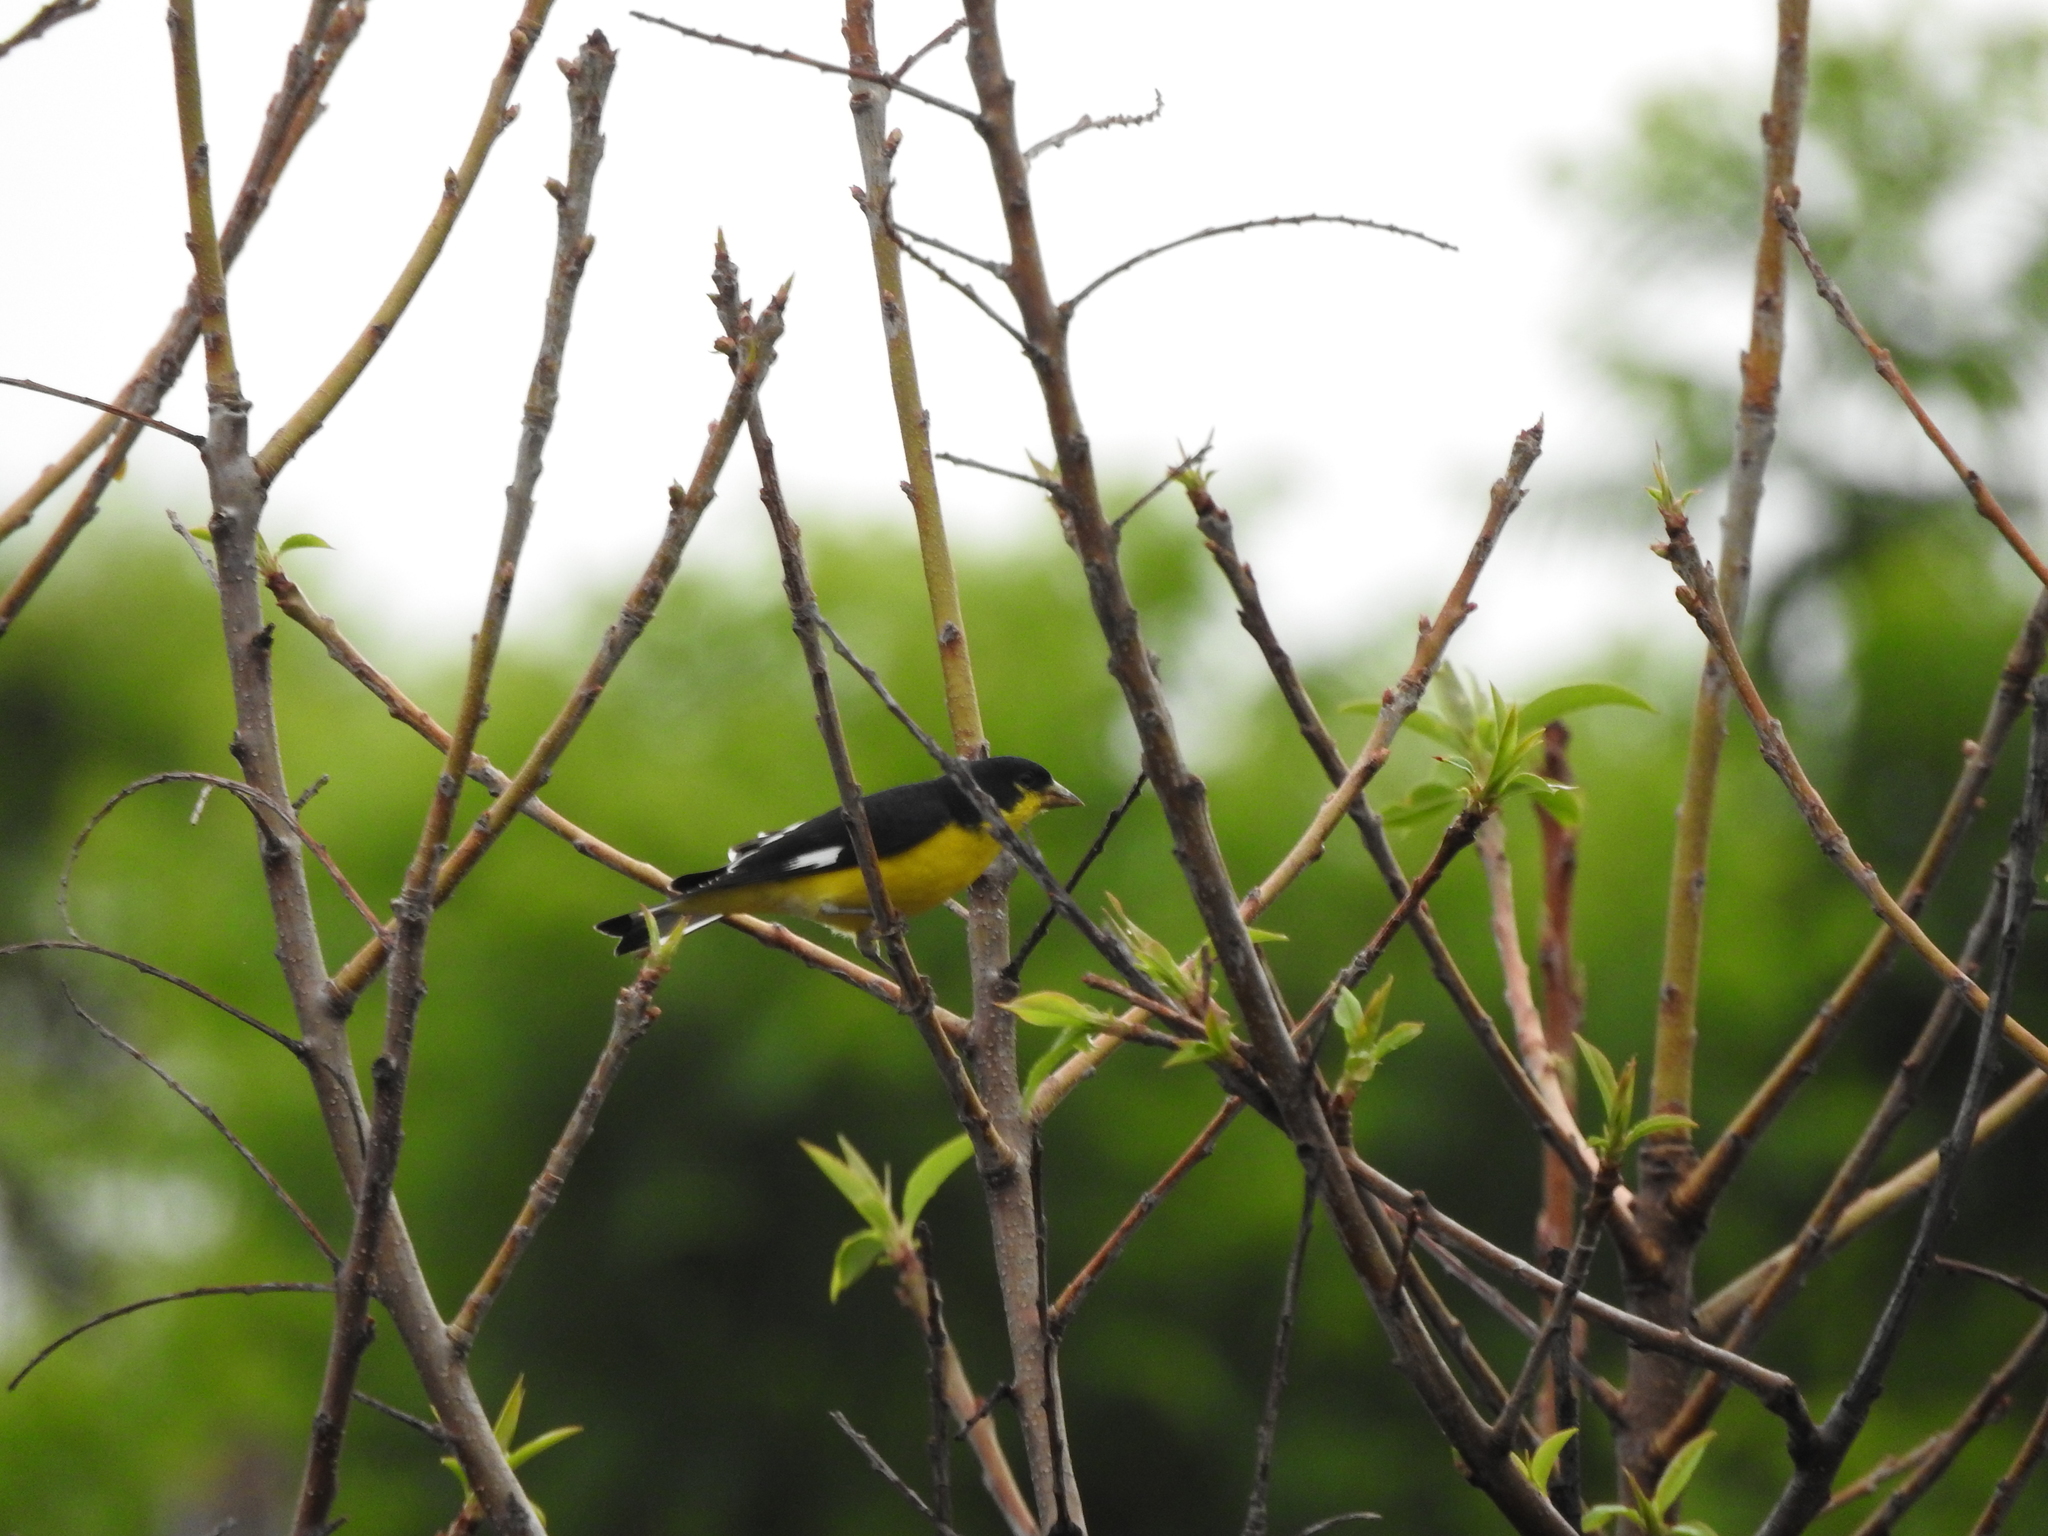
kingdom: Animalia
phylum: Chordata
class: Aves
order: Passeriformes
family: Fringillidae
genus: Spinus
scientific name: Spinus psaltria
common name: Lesser goldfinch
